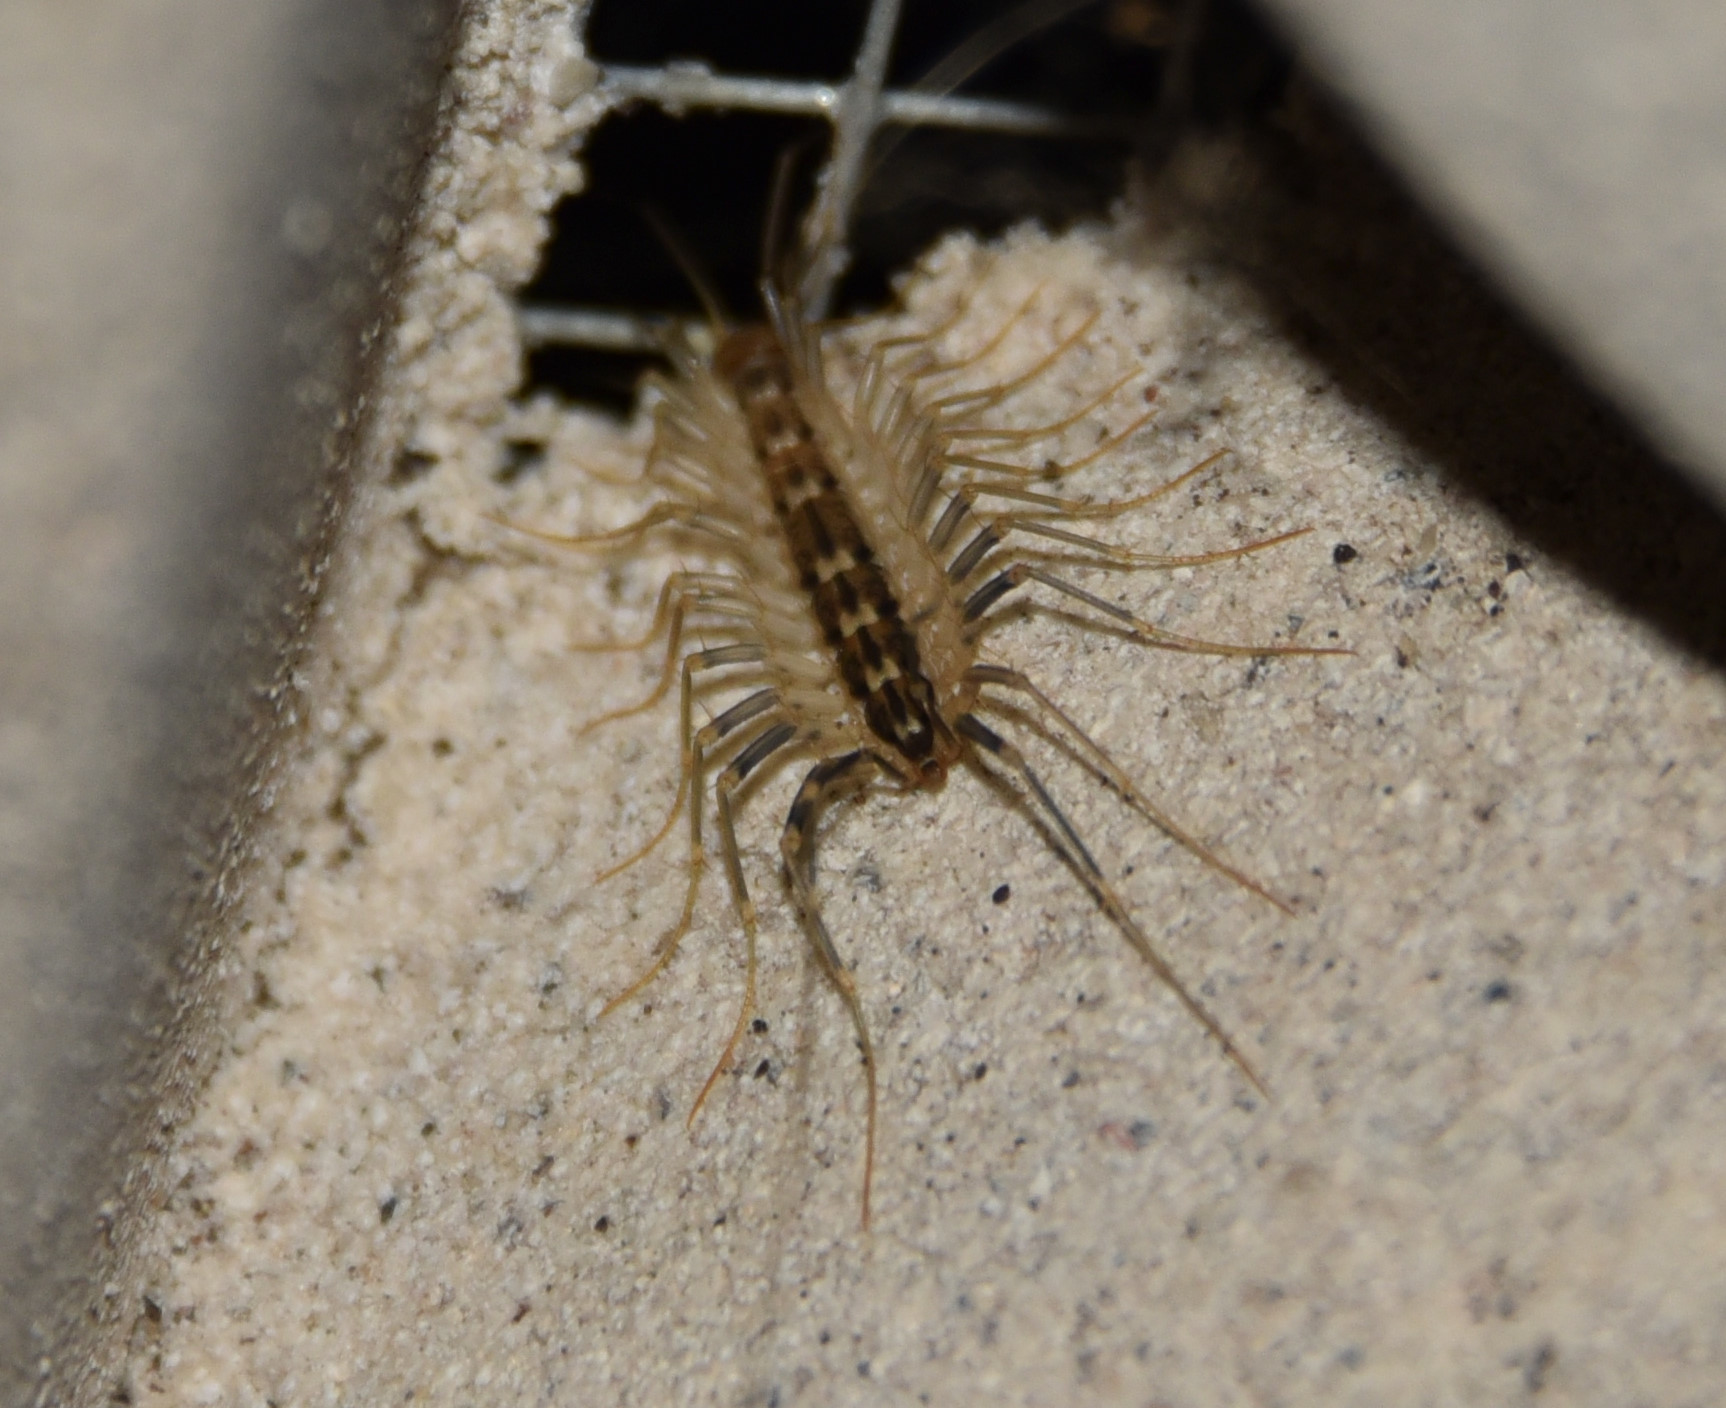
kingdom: Animalia
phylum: Arthropoda
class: Chilopoda
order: Scutigeromorpha
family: Scutigeridae
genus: Scutigera
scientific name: Scutigera coleoptrata
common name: House centipede
